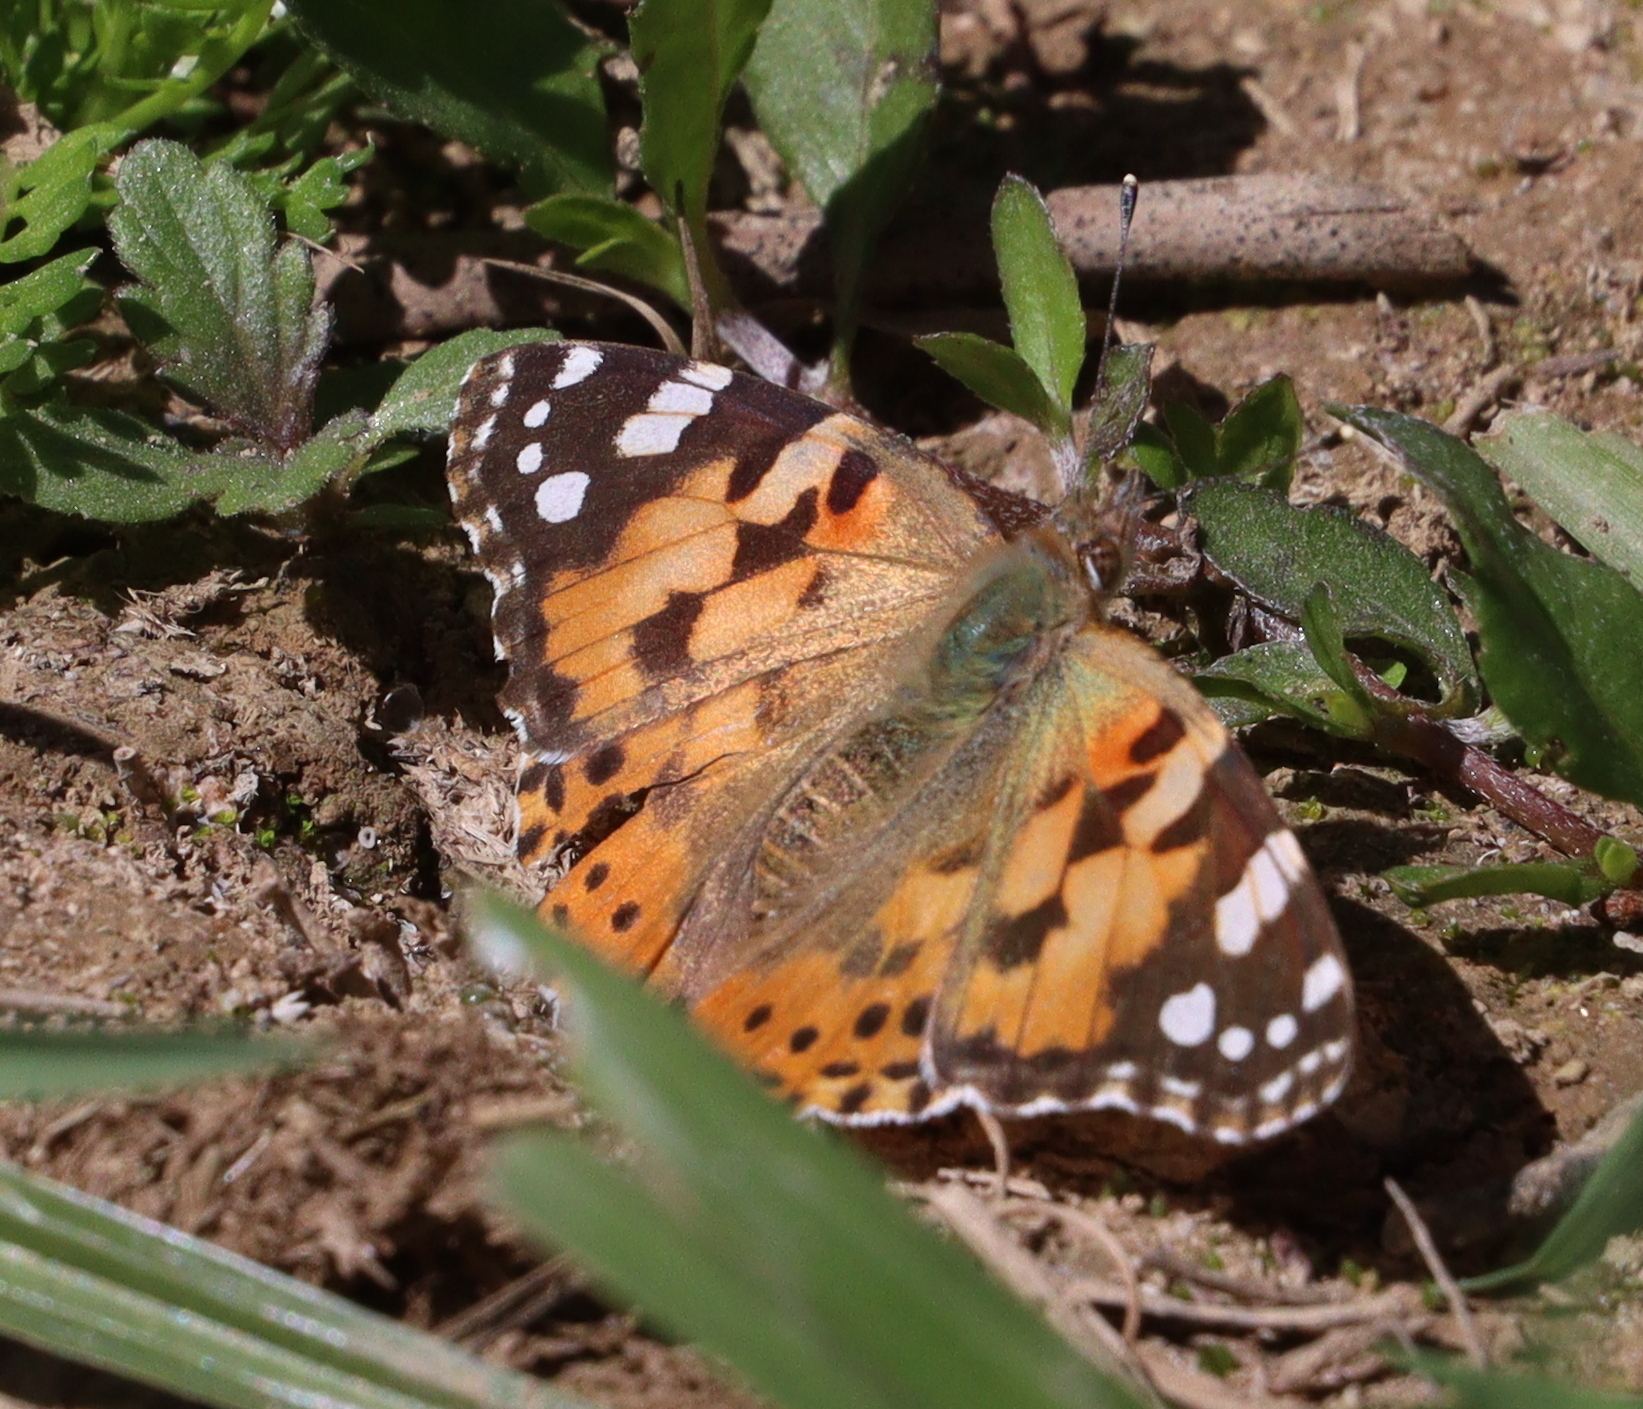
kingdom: Animalia
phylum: Arthropoda
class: Insecta
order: Lepidoptera
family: Nymphalidae
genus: Vanessa
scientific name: Vanessa cardui
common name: Painted lady
